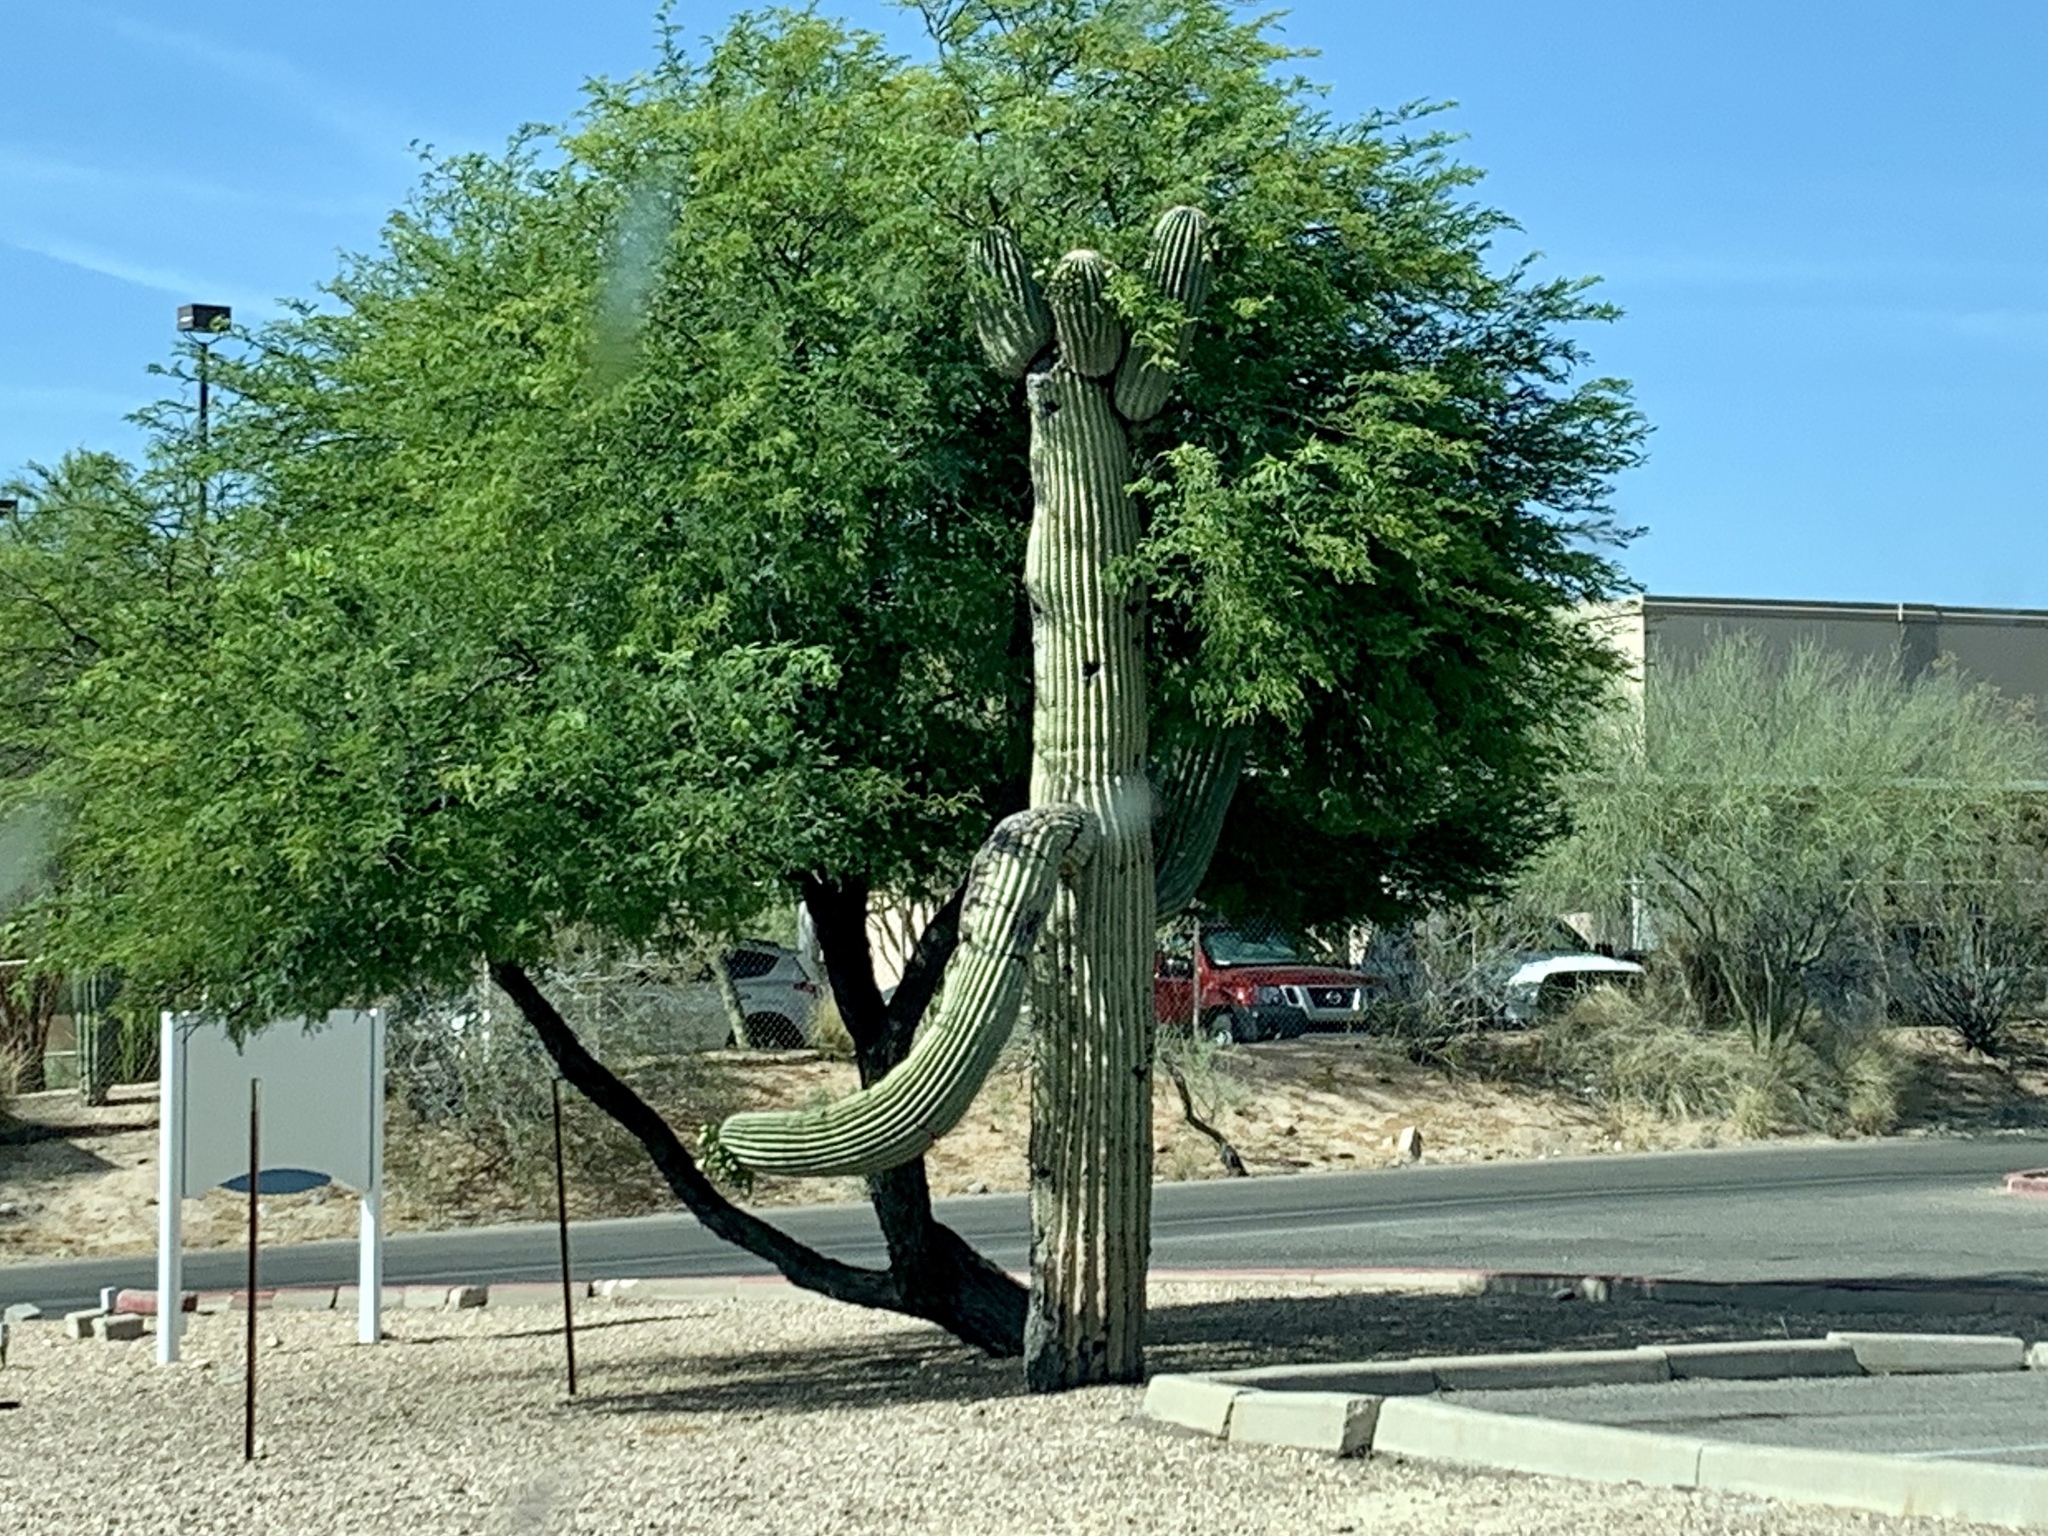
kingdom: Plantae
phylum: Tracheophyta
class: Magnoliopsida
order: Caryophyllales
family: Cactaceae
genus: Carnegiea
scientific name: Carnegiea gigantea
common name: Saguaro
